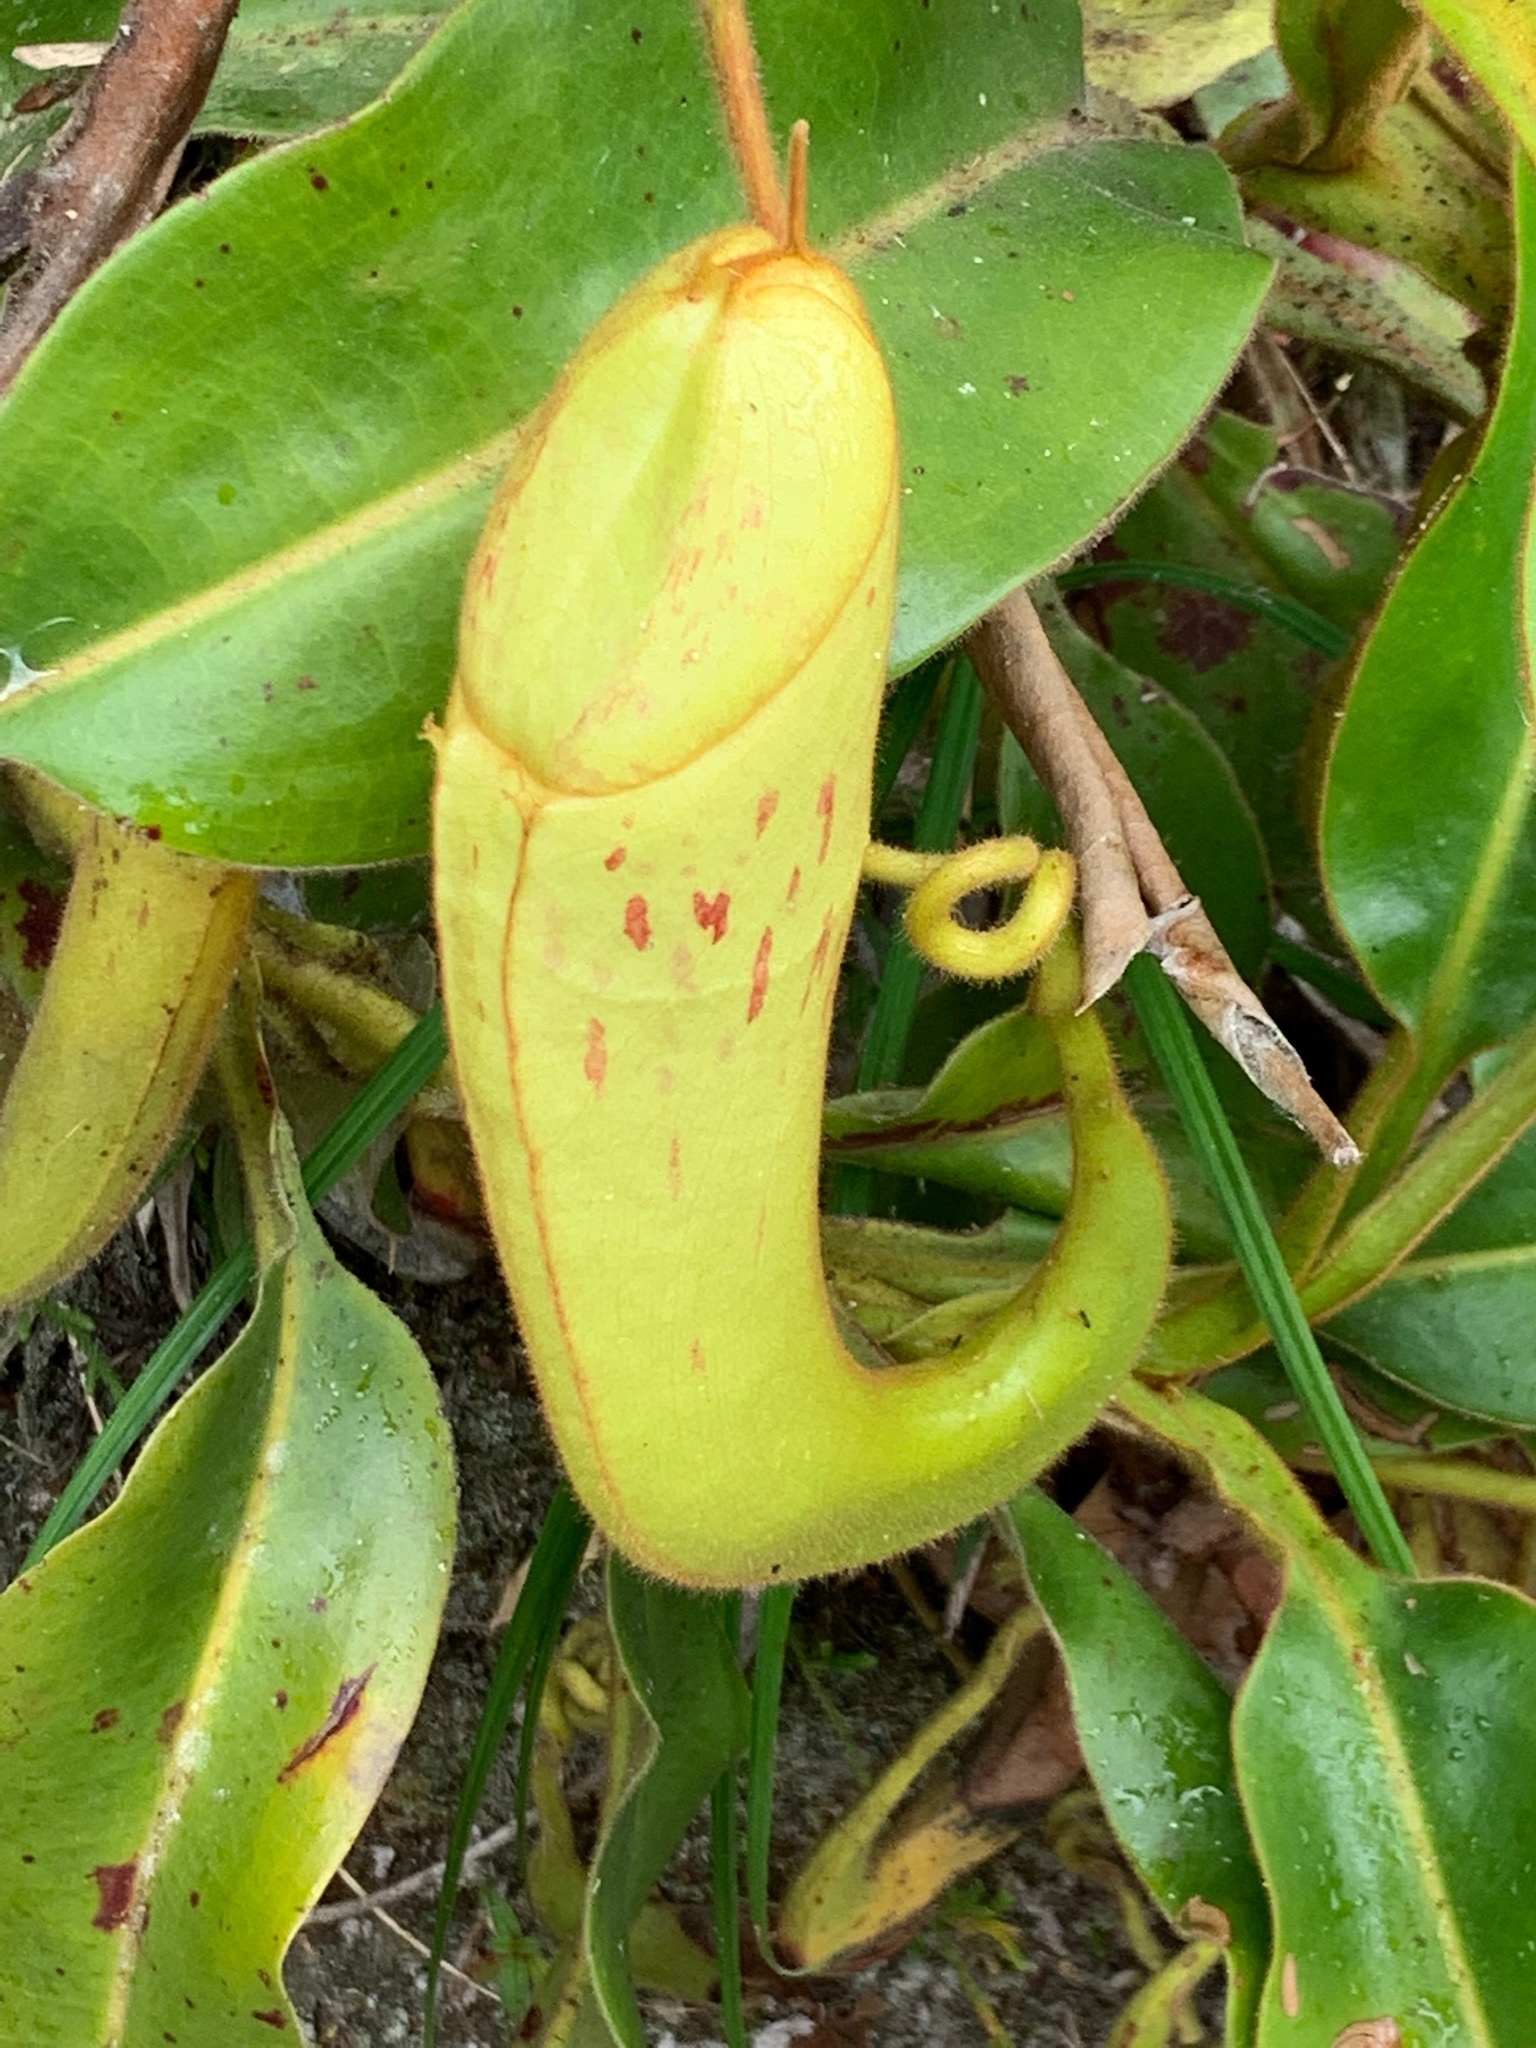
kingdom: Plantae
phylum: Tracheophyta
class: Magnoliopsida
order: Caryophyllales
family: Nepenthaceae
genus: Nepenthes
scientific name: Nepenthes chaniana
